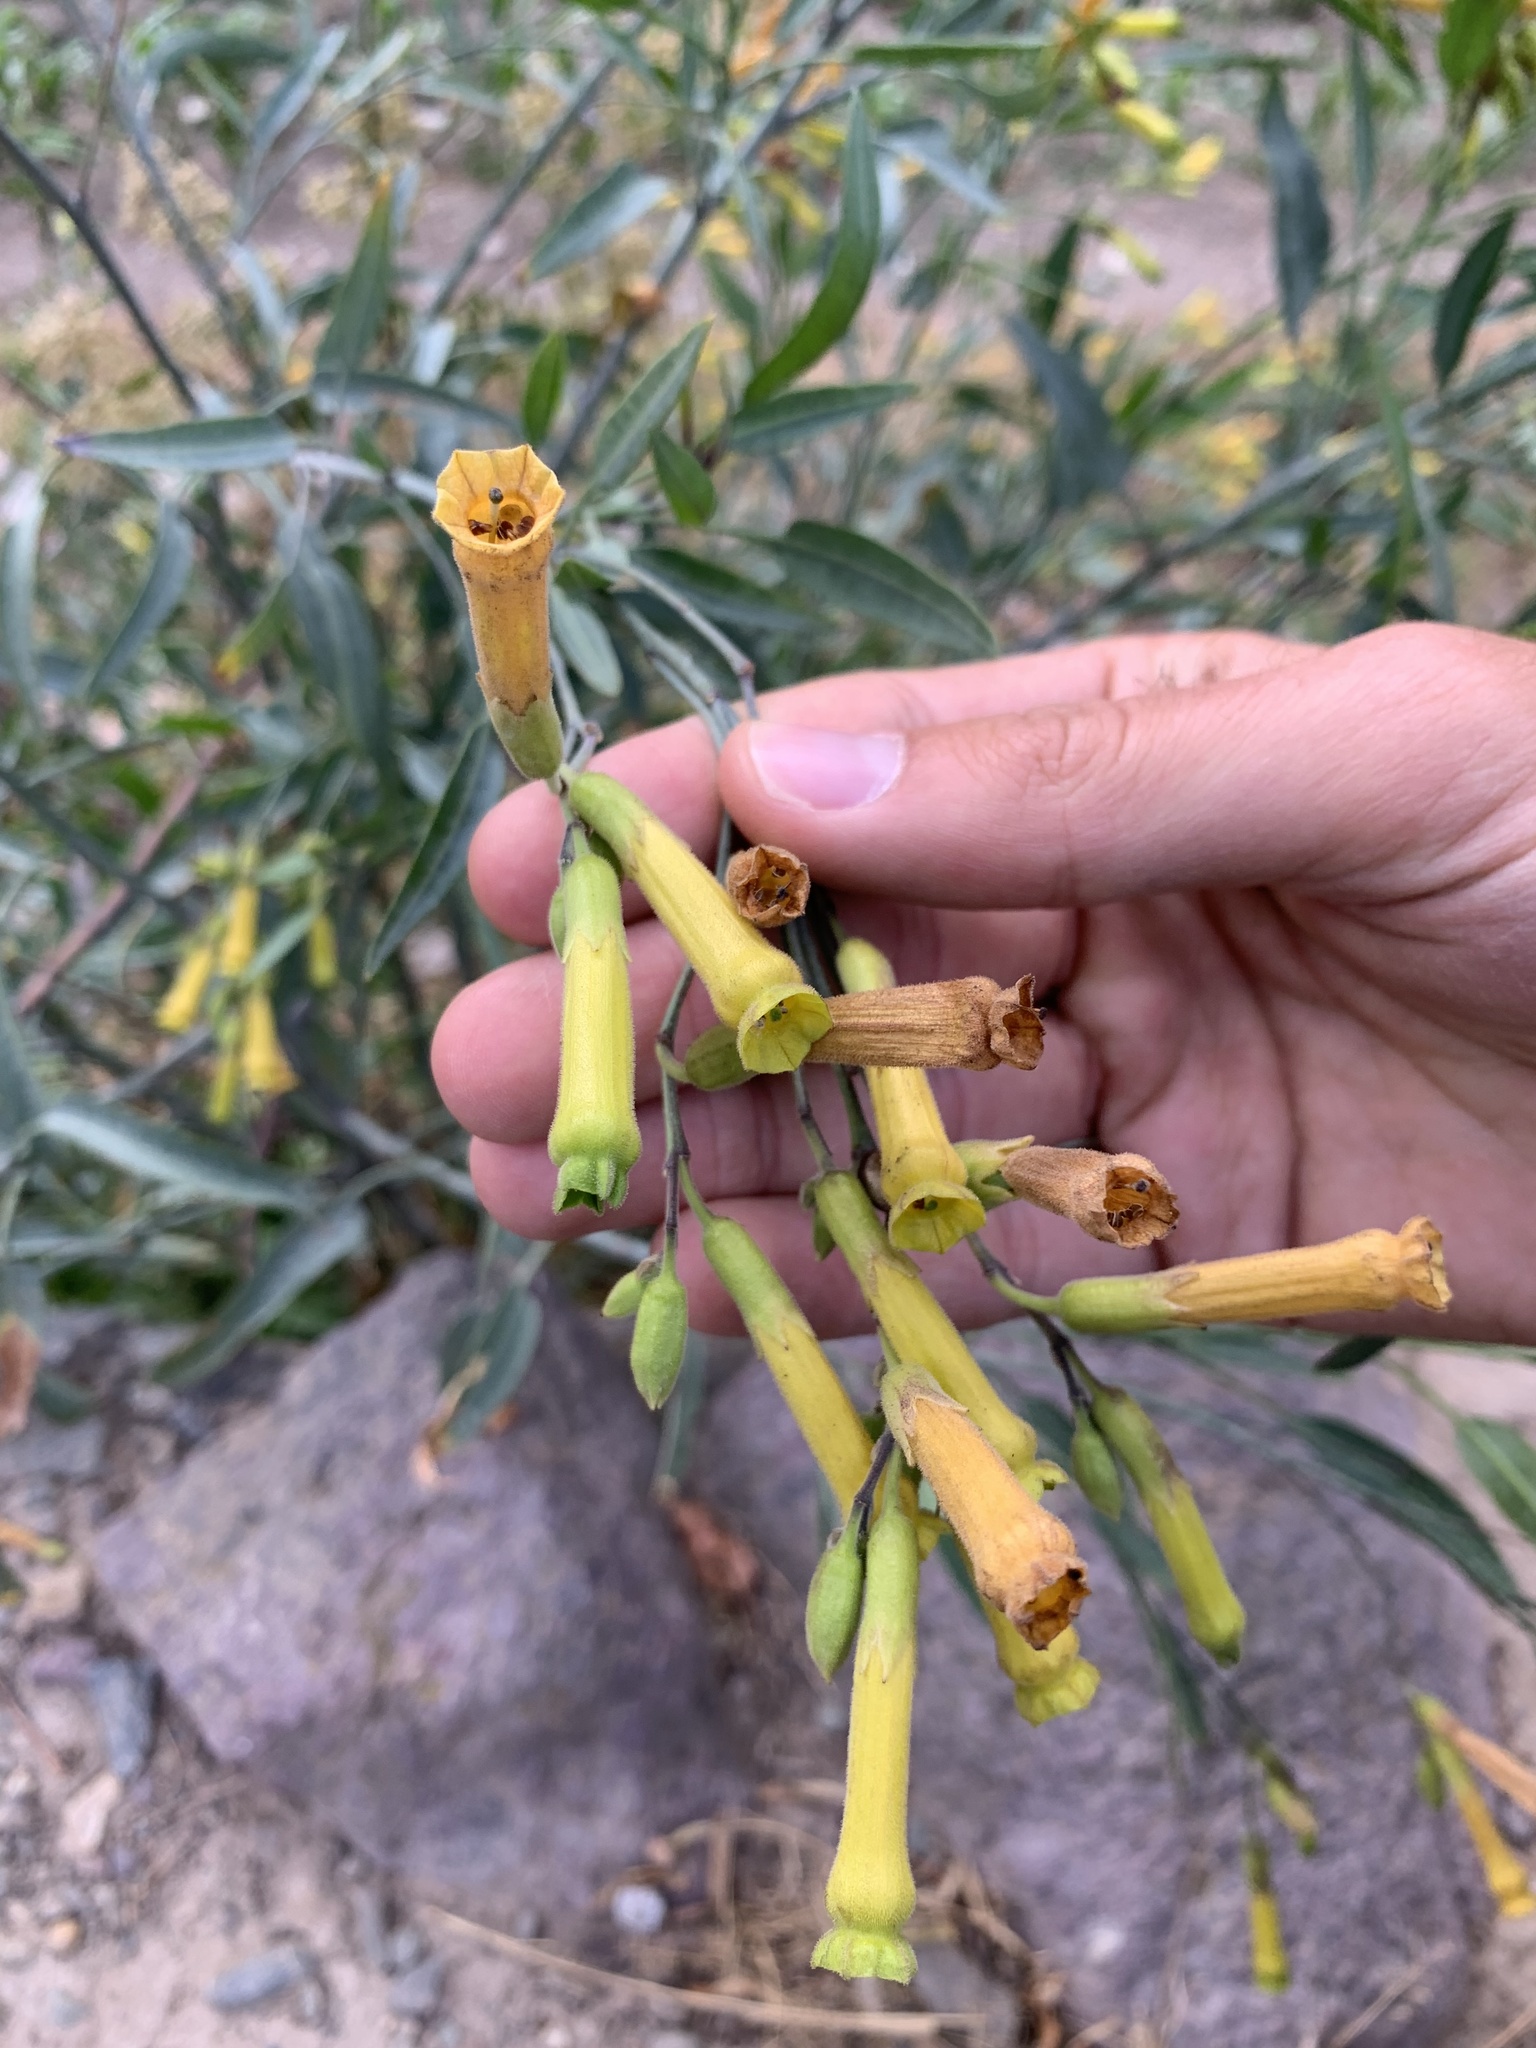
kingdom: Plantae
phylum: Tracheophyta
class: Magnoliopsida
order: Solanales
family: Solanaceae
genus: Nicotiana
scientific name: Nicotiana glauca
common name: Tree tobacco
